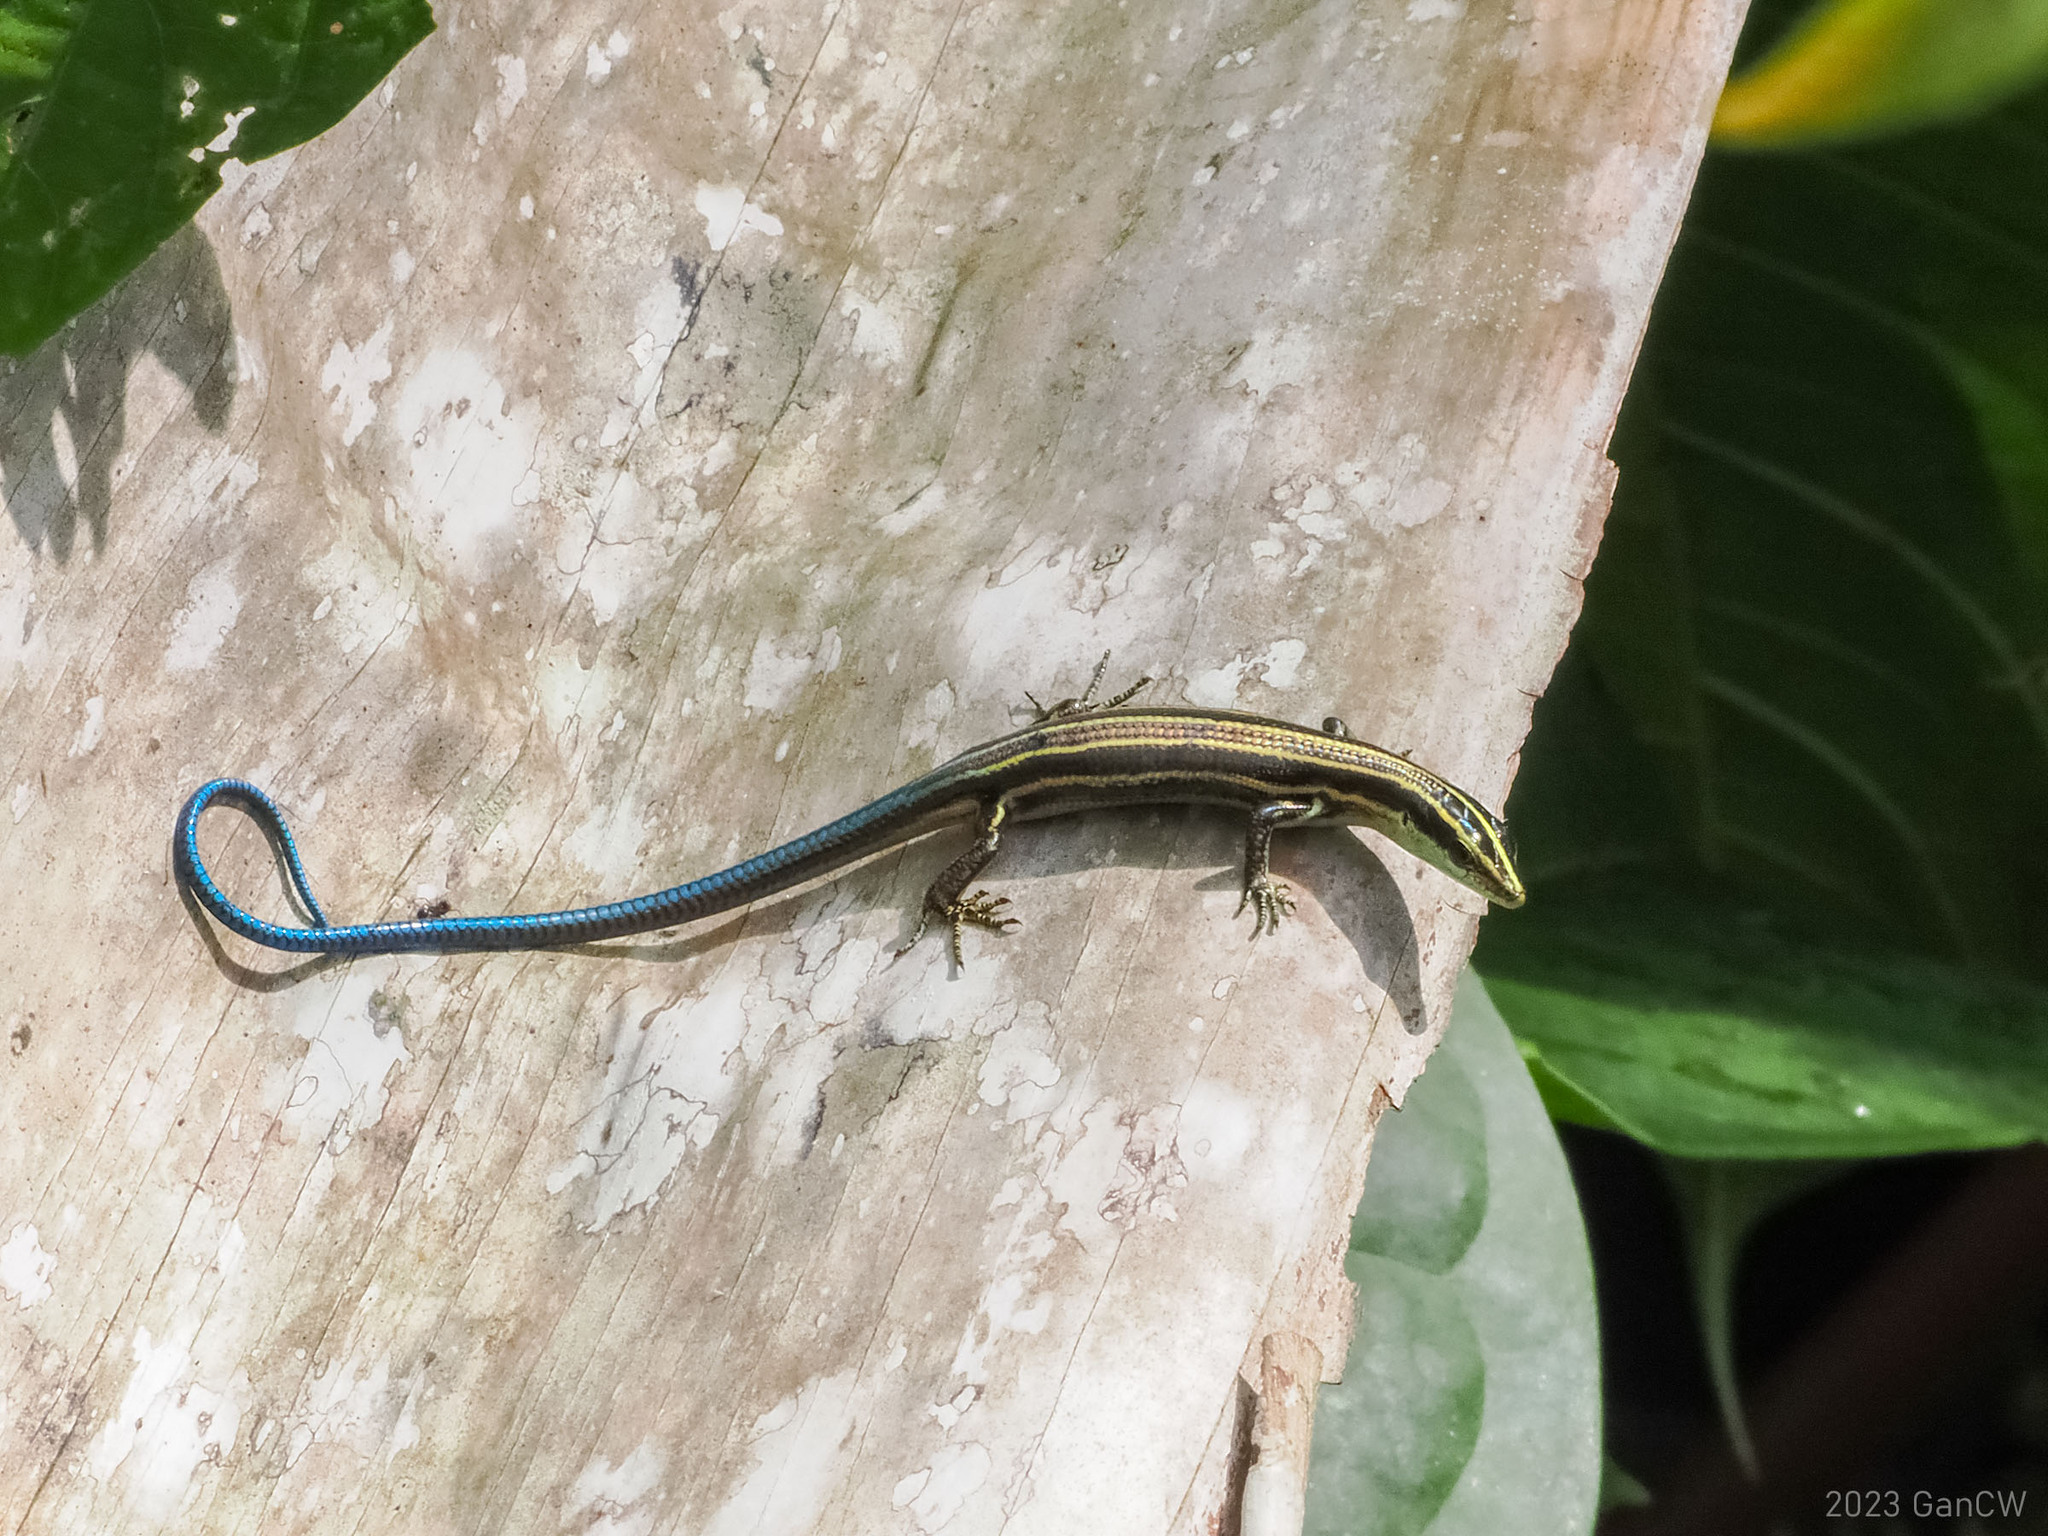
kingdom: Animalia
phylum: Chordata
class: Squamata
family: Scincidae
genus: Emoia
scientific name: Emoia caeruleocauda
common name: Pacific bluetail skink
